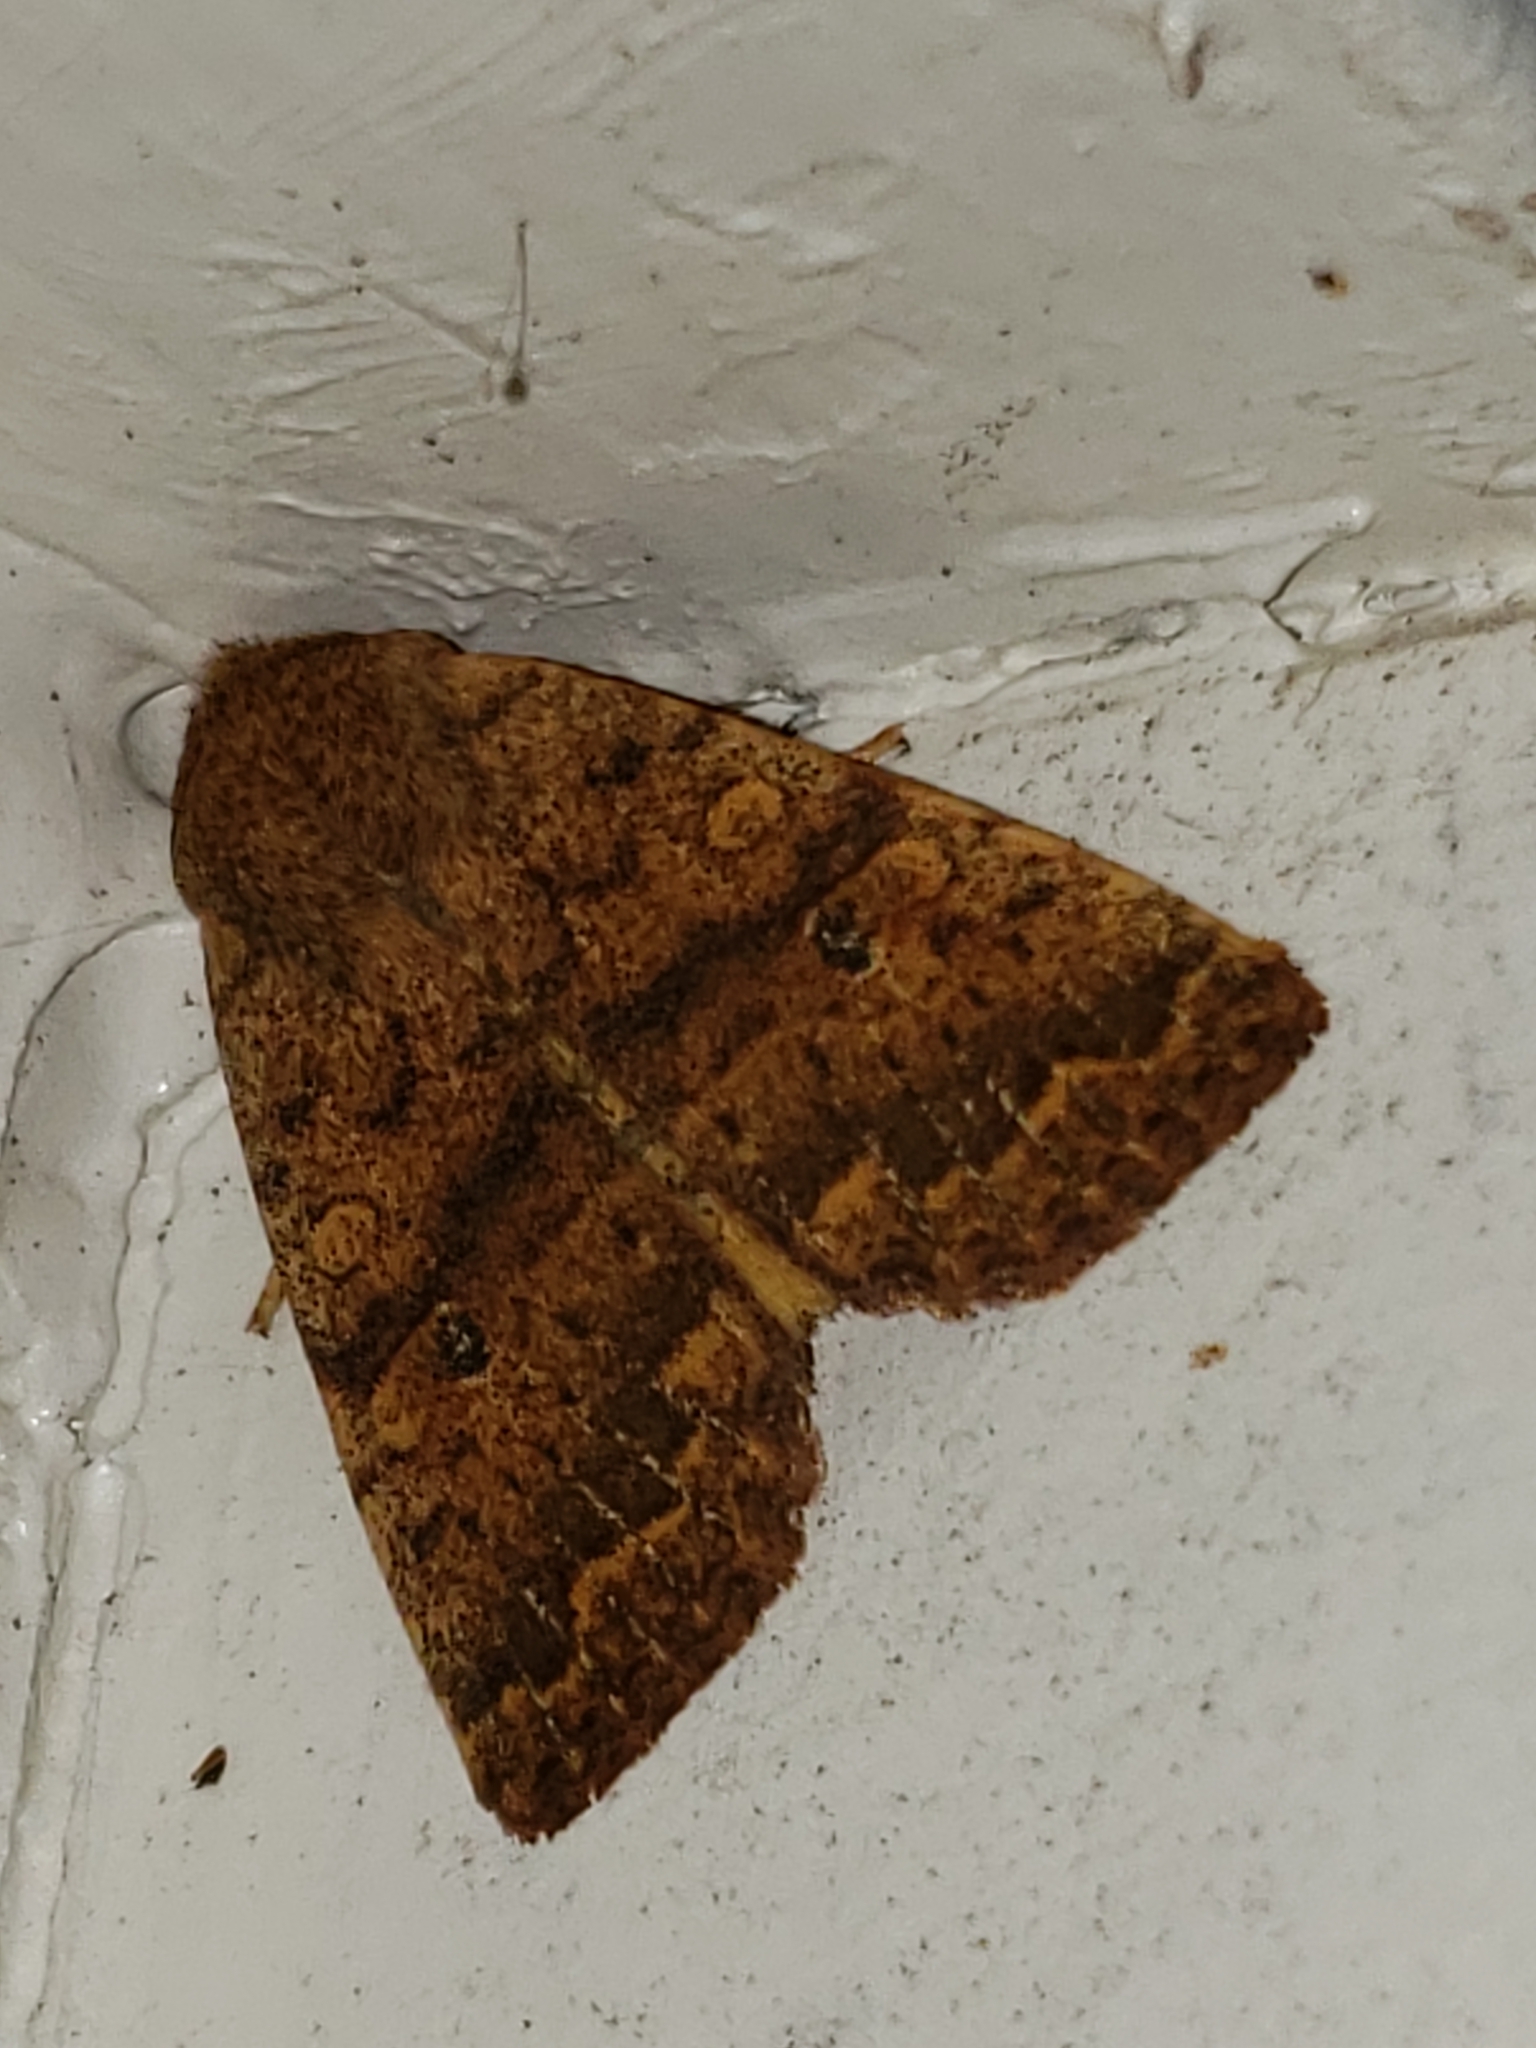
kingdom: Animalia
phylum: Arthropoda
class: Insecta
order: Lepidoptera
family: Noctuidae
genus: Agrochola
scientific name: Agrochola bicolorago
